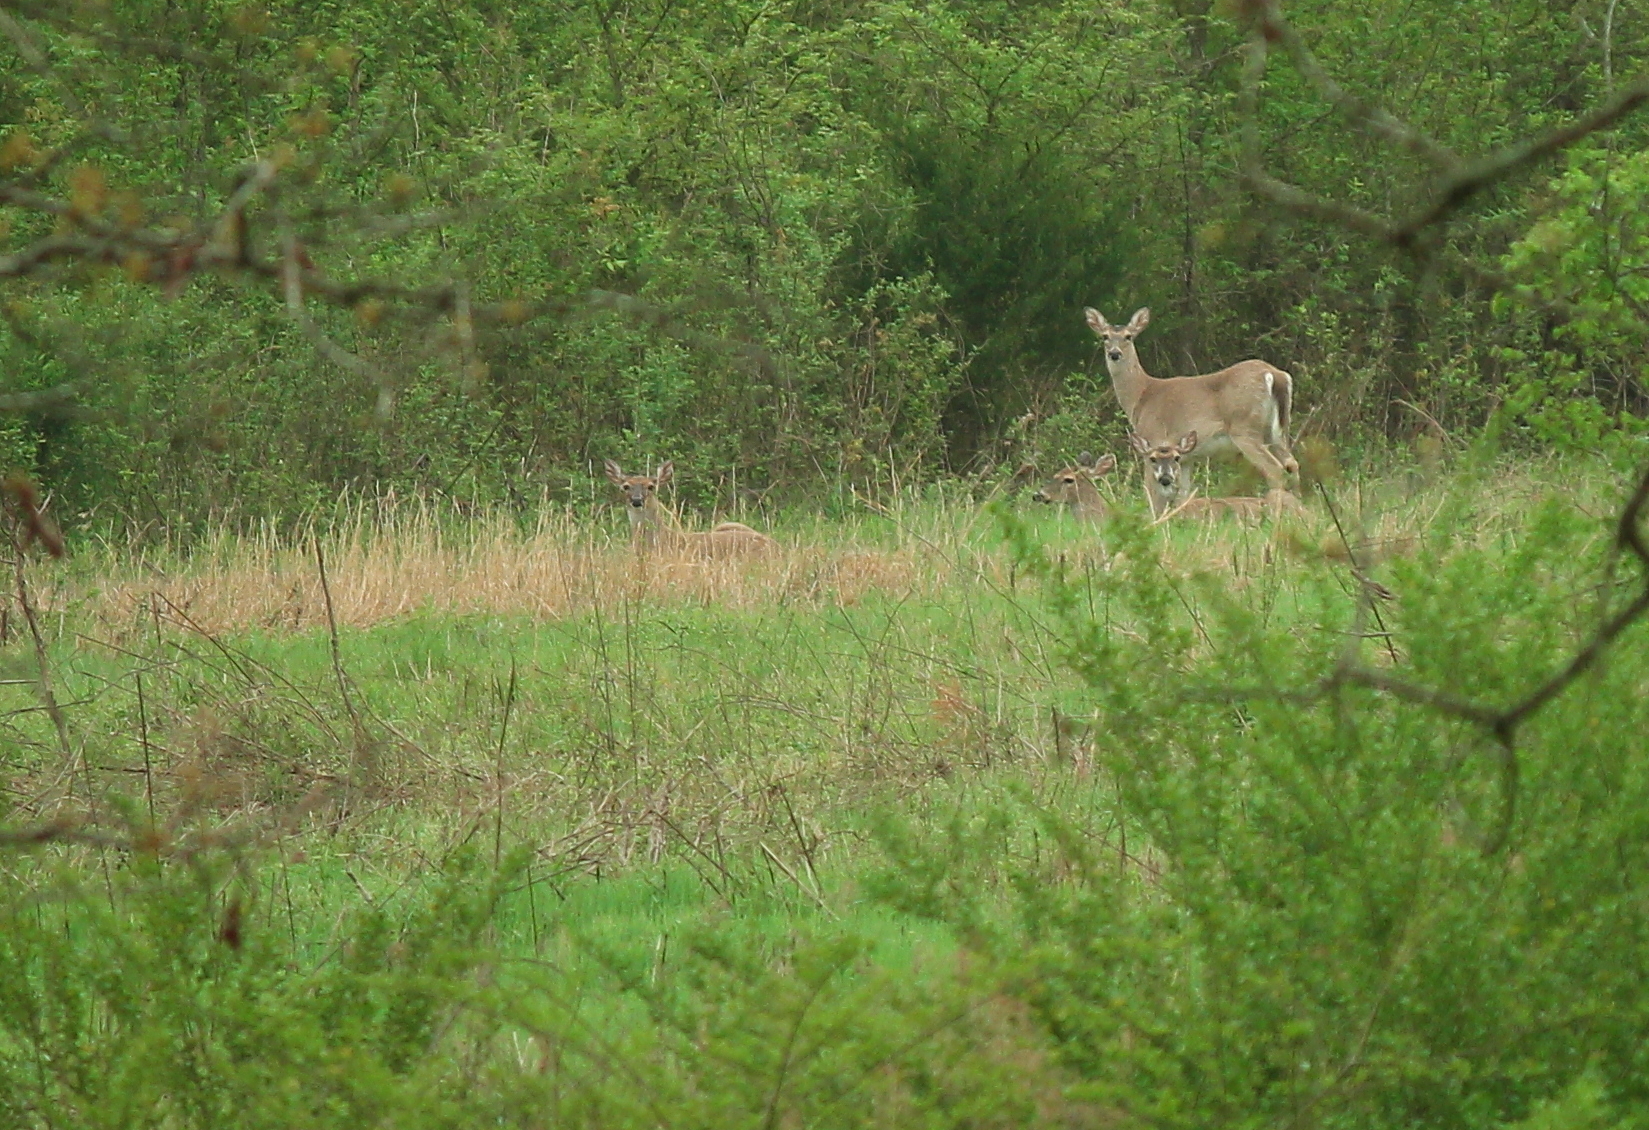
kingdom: Animalia
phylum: Chordata
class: Mammalia
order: Artiodactyla
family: Cervidae
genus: Odocoileus
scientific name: Odocoileus virginianus
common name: White-tailed deer
